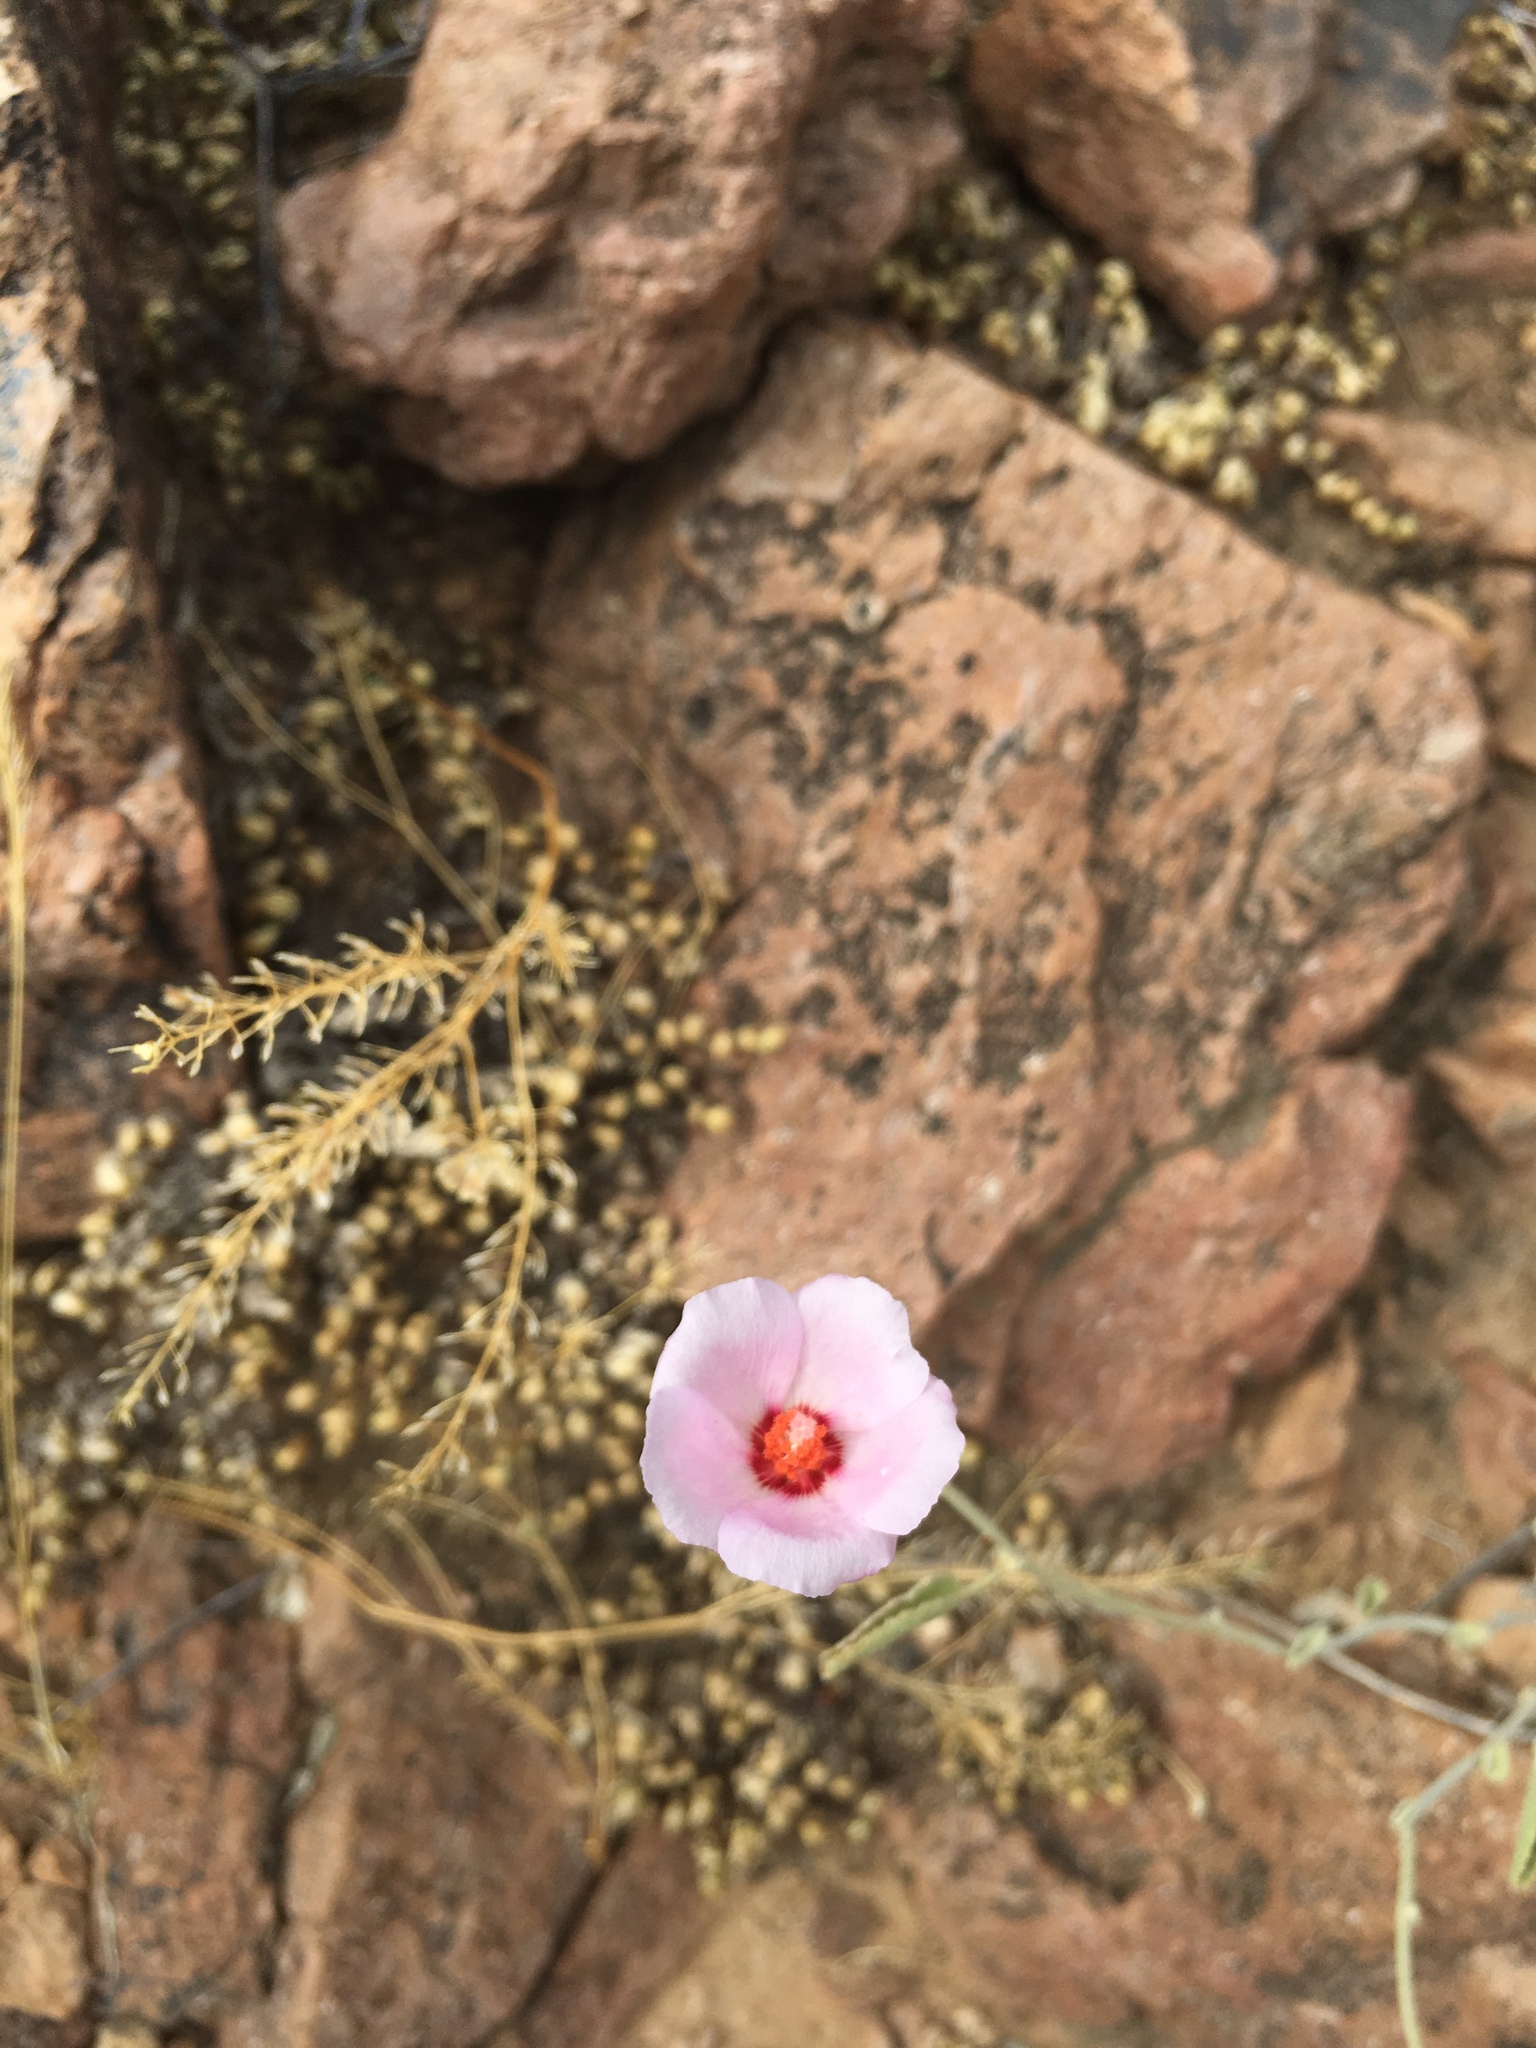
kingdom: Plantae
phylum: Tracheophyta
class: Magnoliopsida
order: Malvales
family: Malvaceae
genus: Hibiscus
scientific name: Hibiscus denudatus
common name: Paleface
